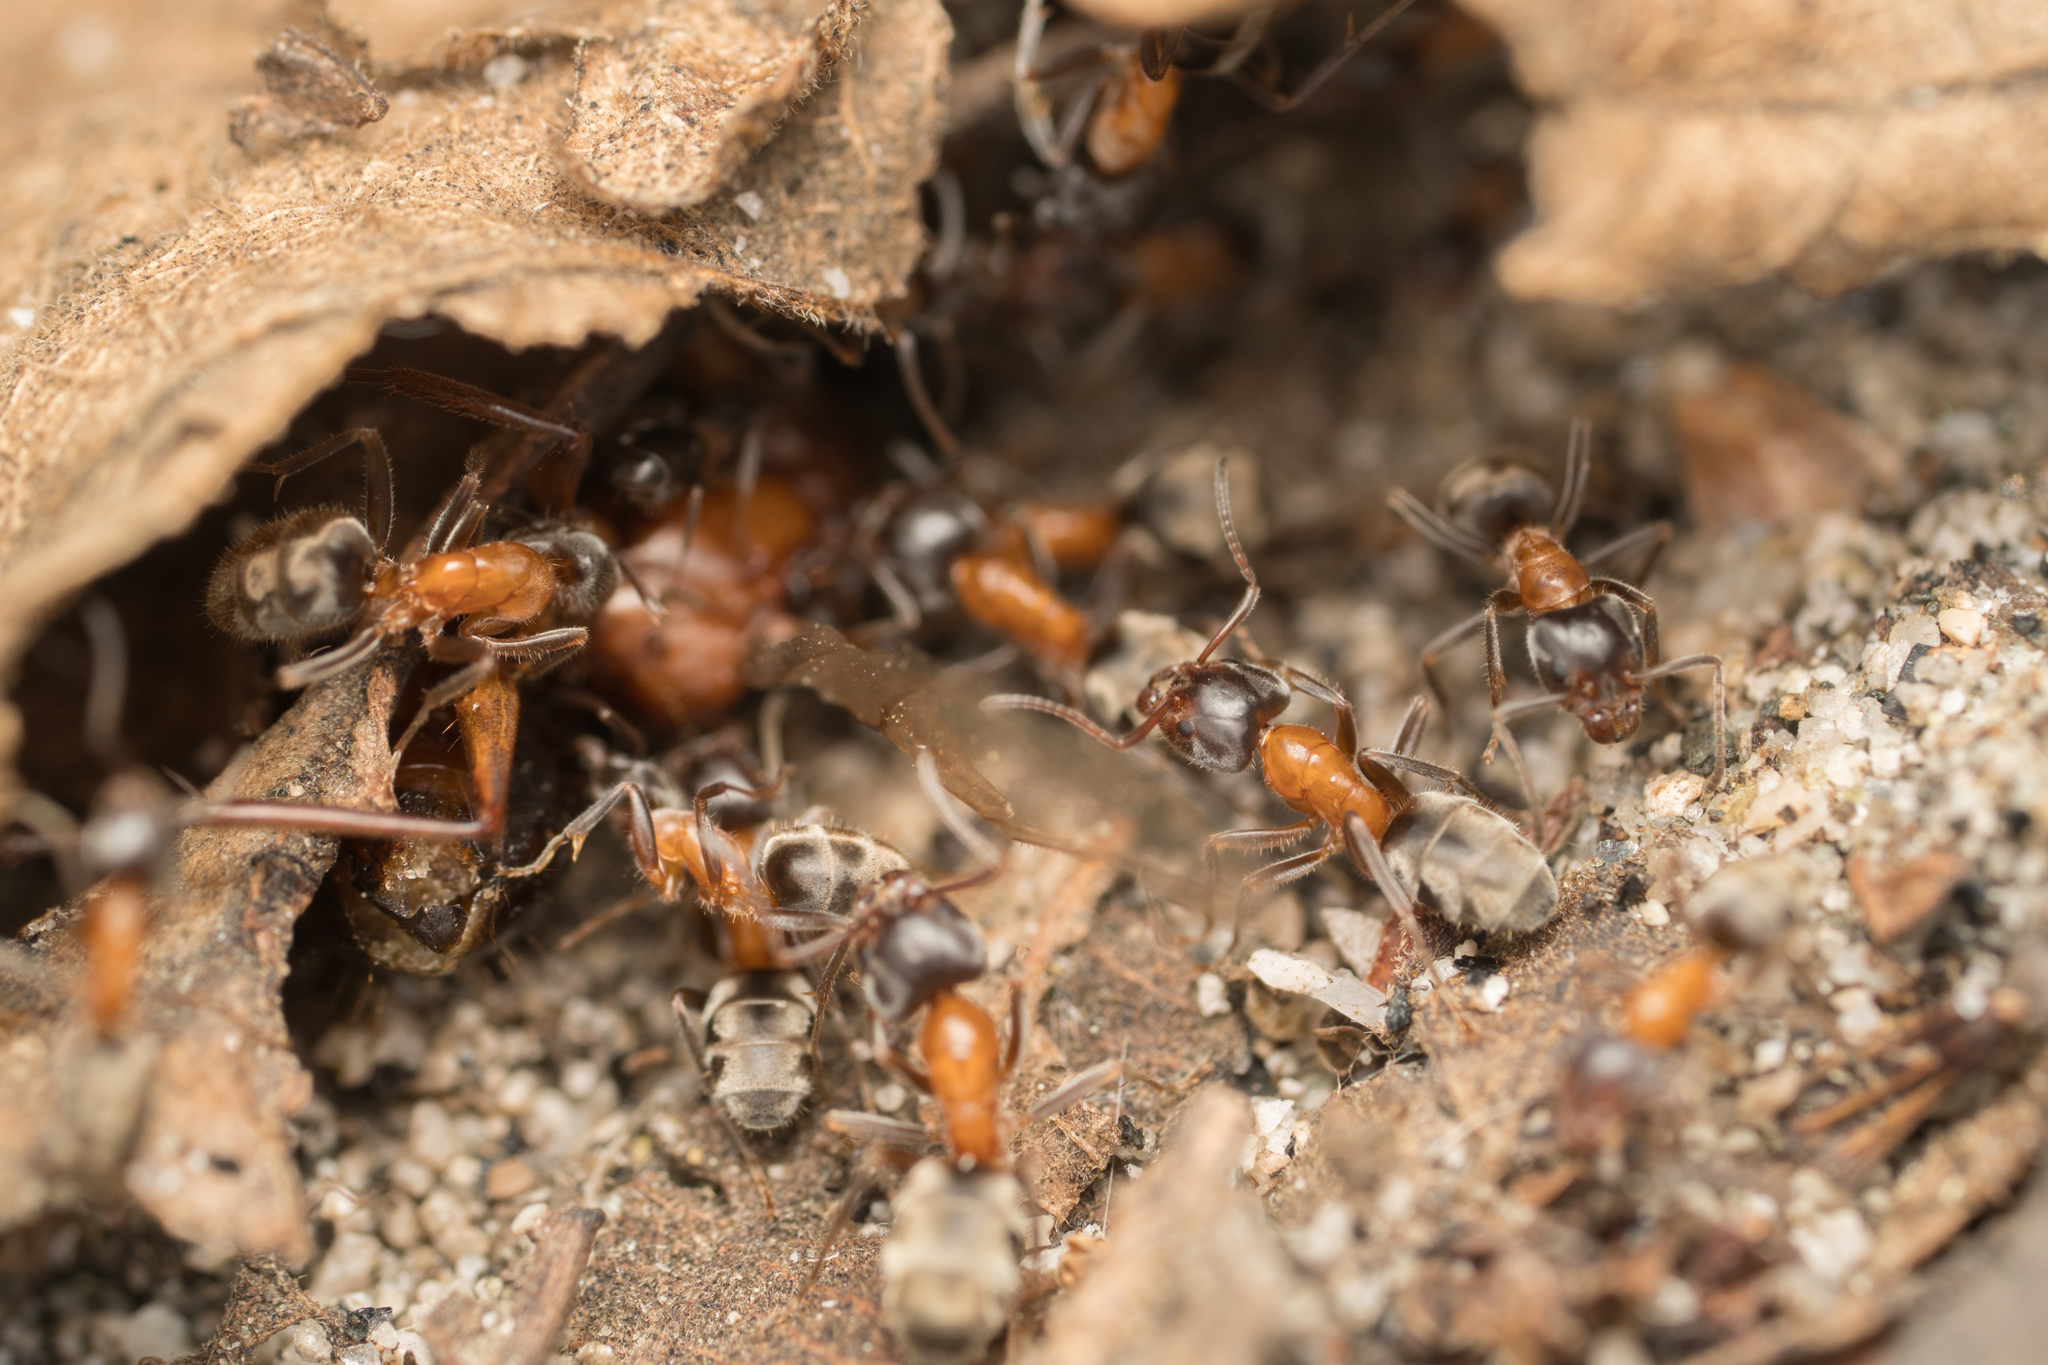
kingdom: Animalia
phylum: Arthropoda
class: Insecta
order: Hymenoptera
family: Formicidae
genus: Liometopum
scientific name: Liometopum occidentale
